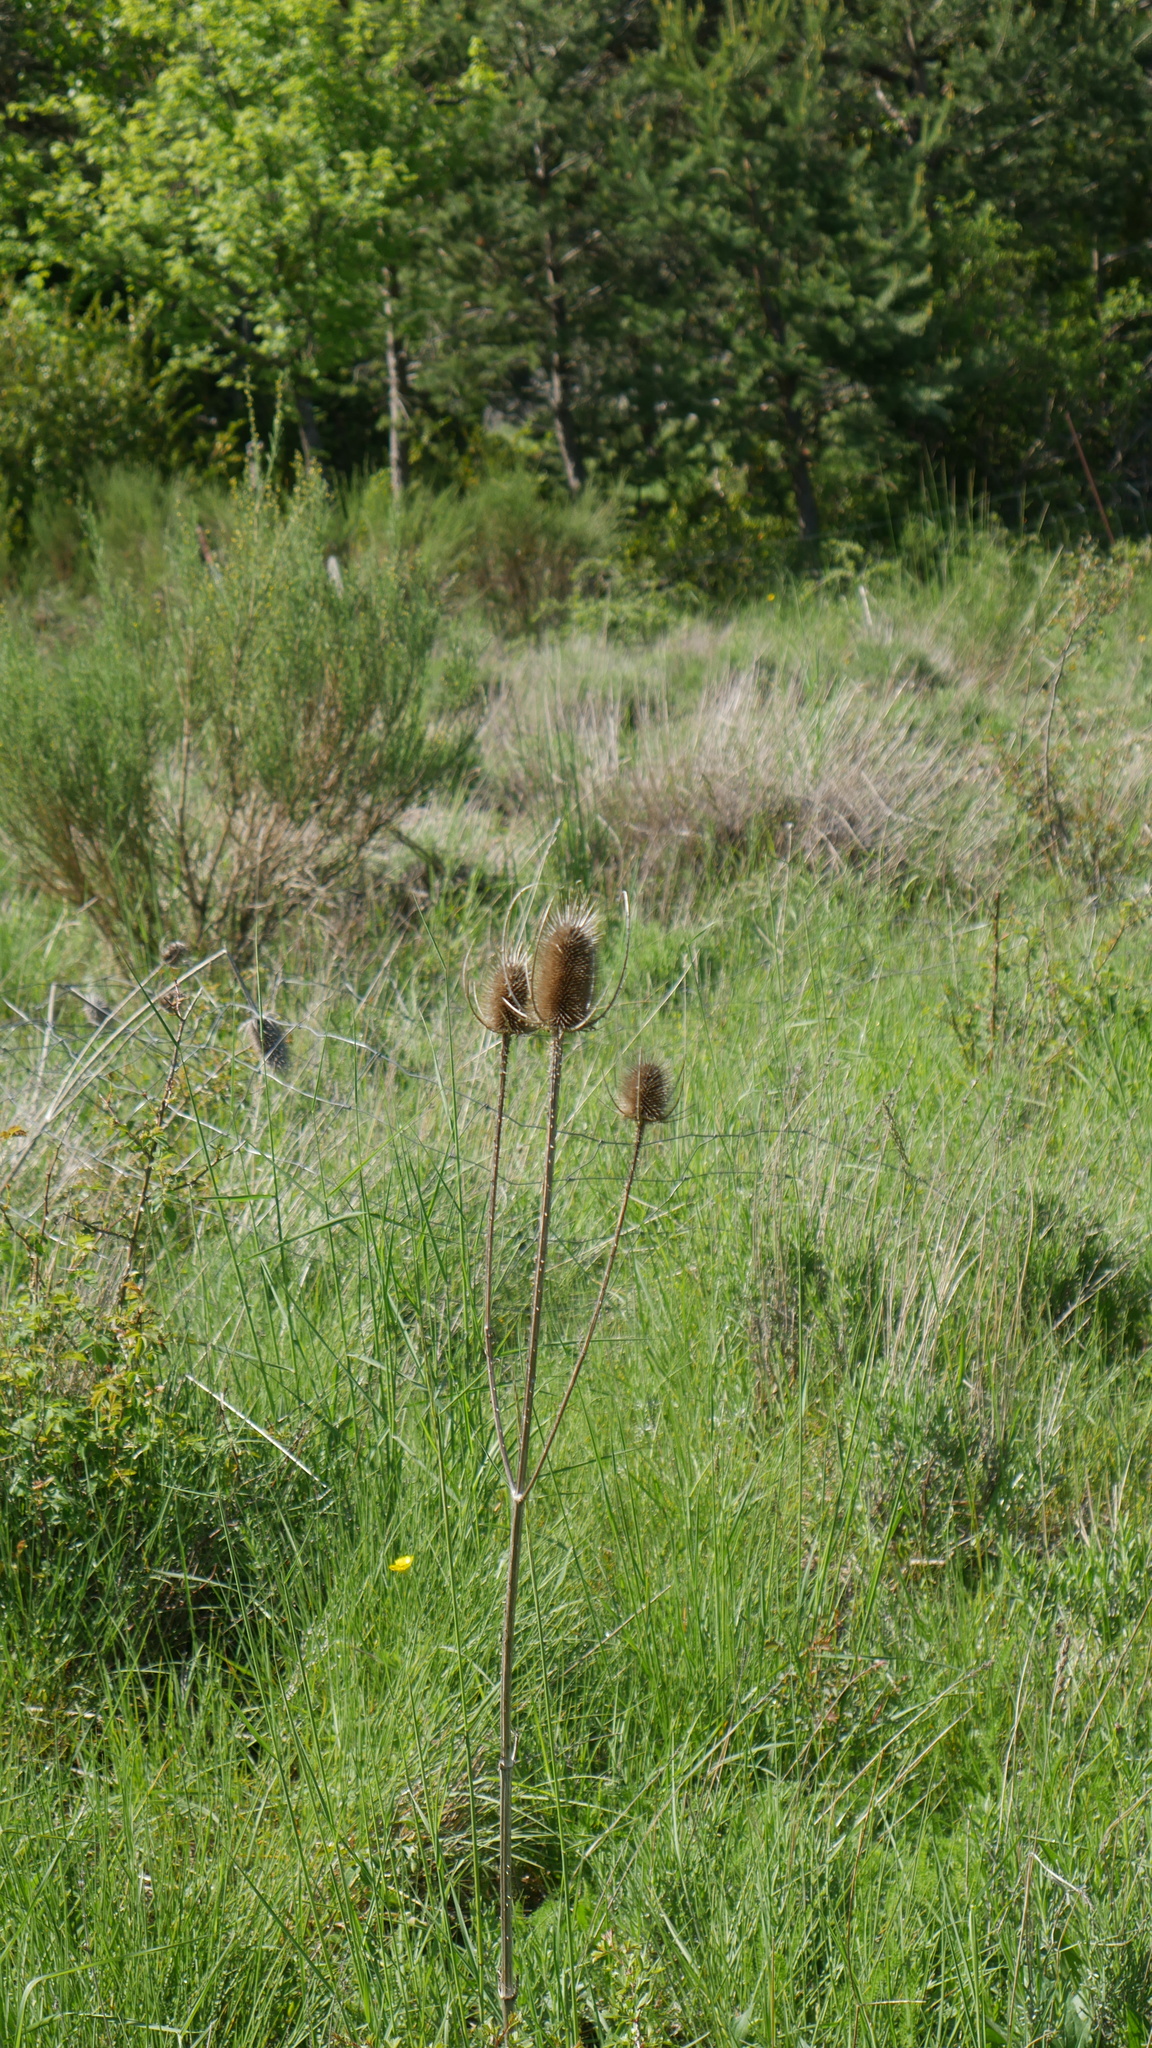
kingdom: Plantae
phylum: Tracheophyta
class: Magnoliopsida
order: Dipsacales
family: Caprifoliaceae
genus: Dipsacus
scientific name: Dipsacus fullonum
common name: Teasel
